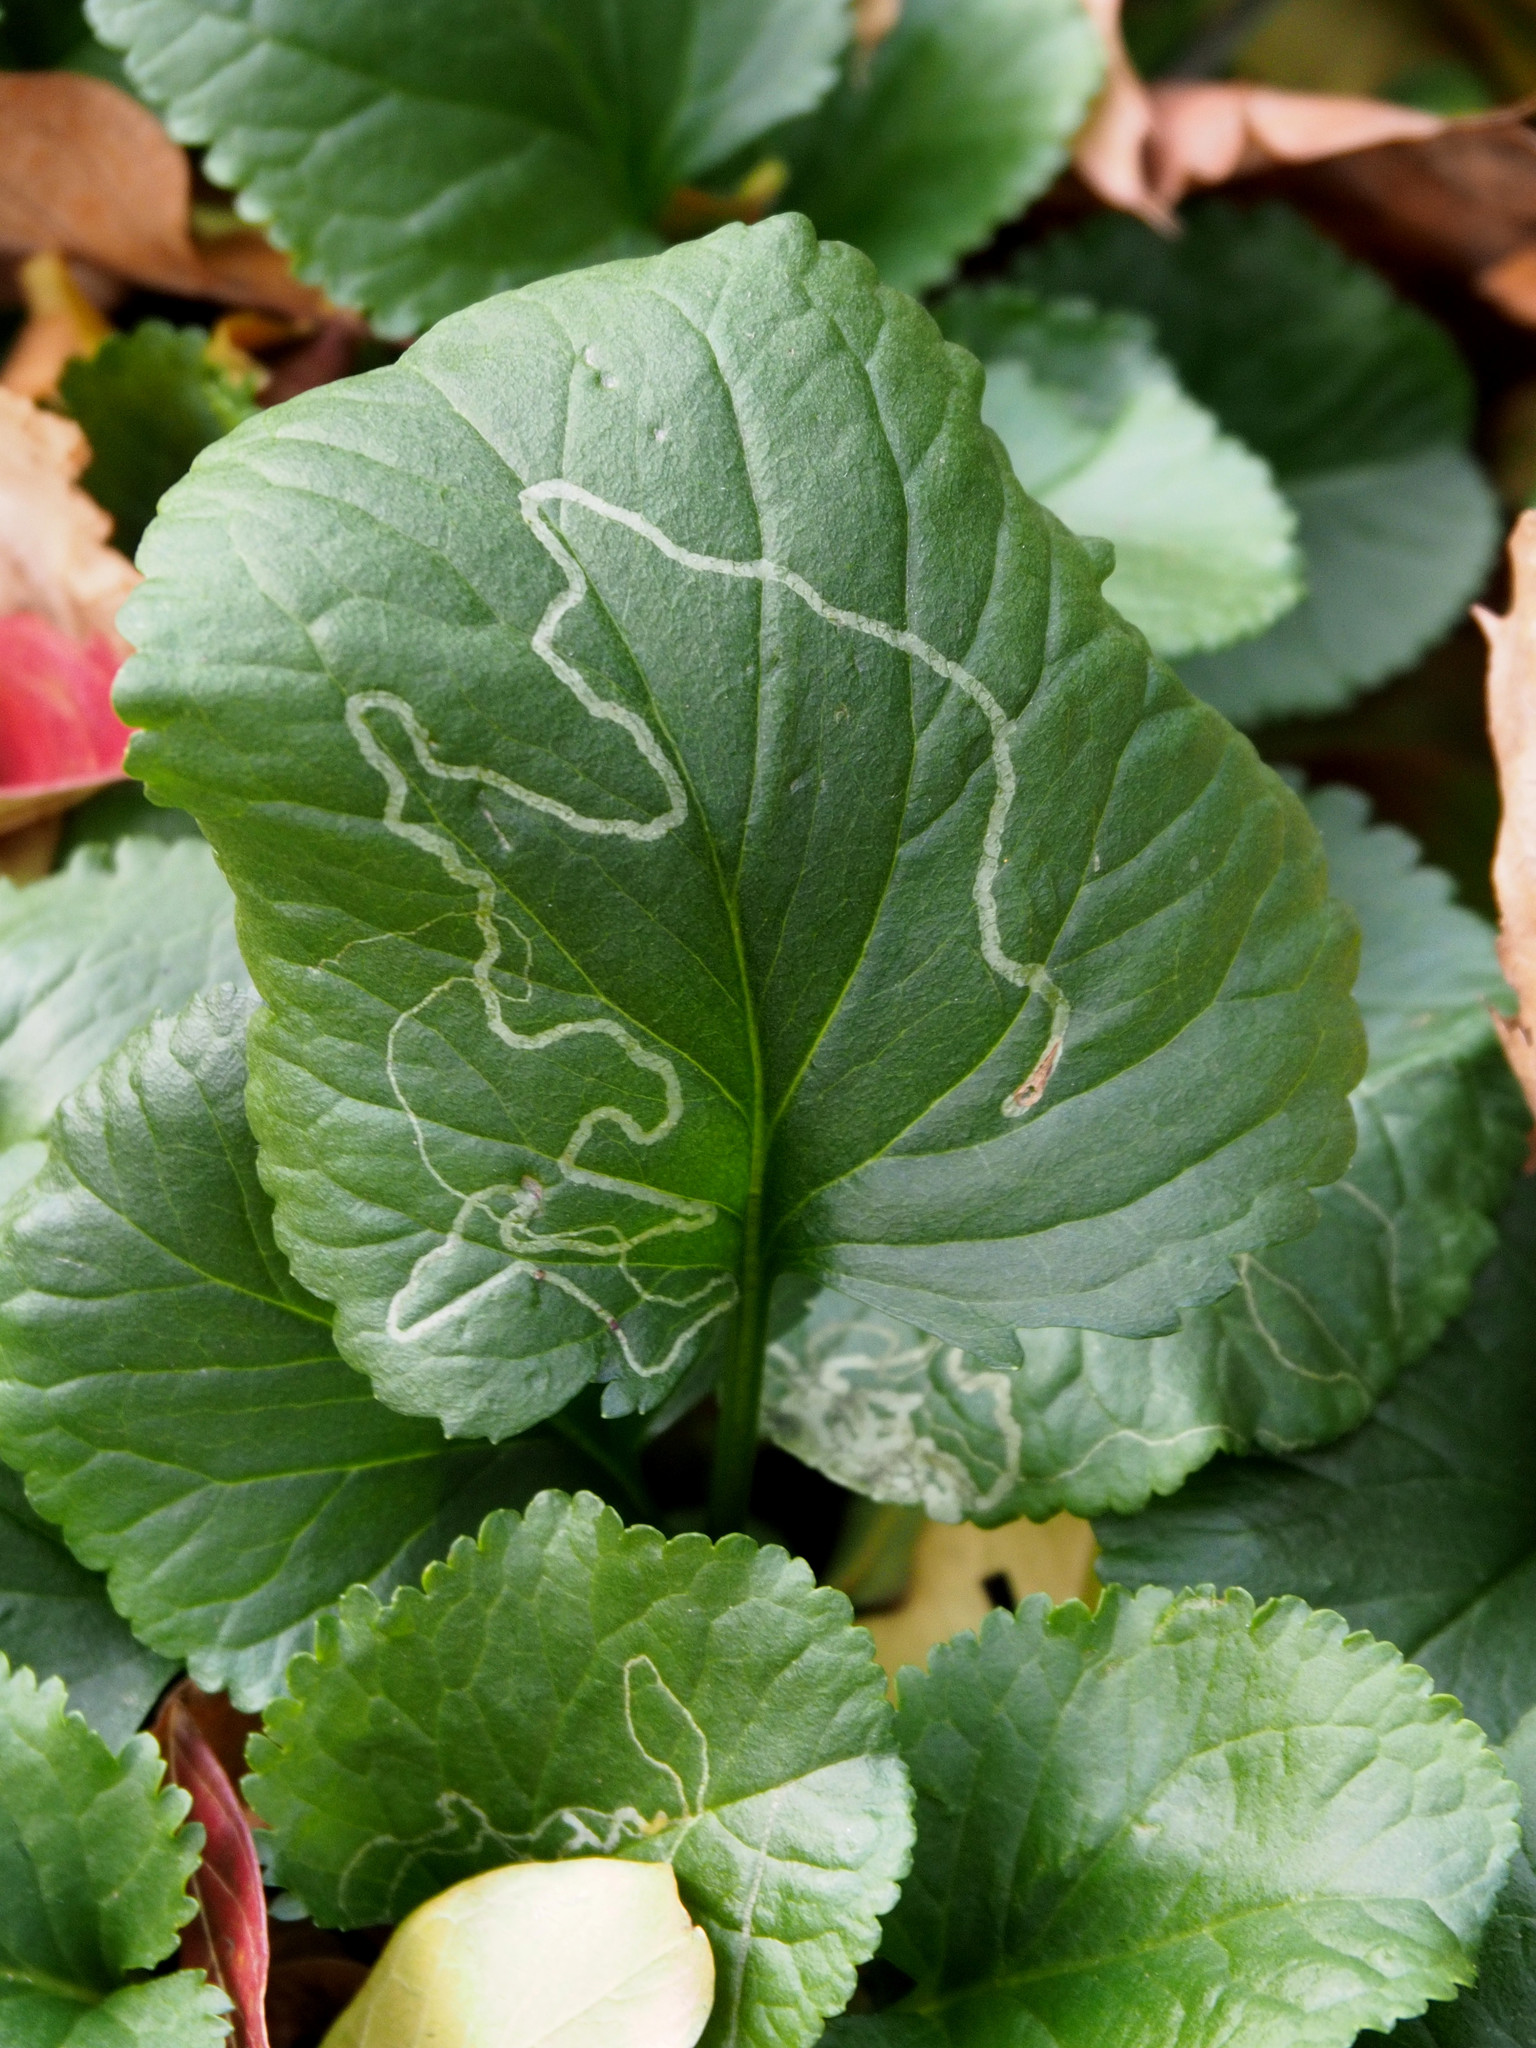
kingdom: Animalia
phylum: Arthropoda
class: Insecta
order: Lepidoptera
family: Gracillariidae
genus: Phyllocnistis
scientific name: Phyllocnistis insignis
